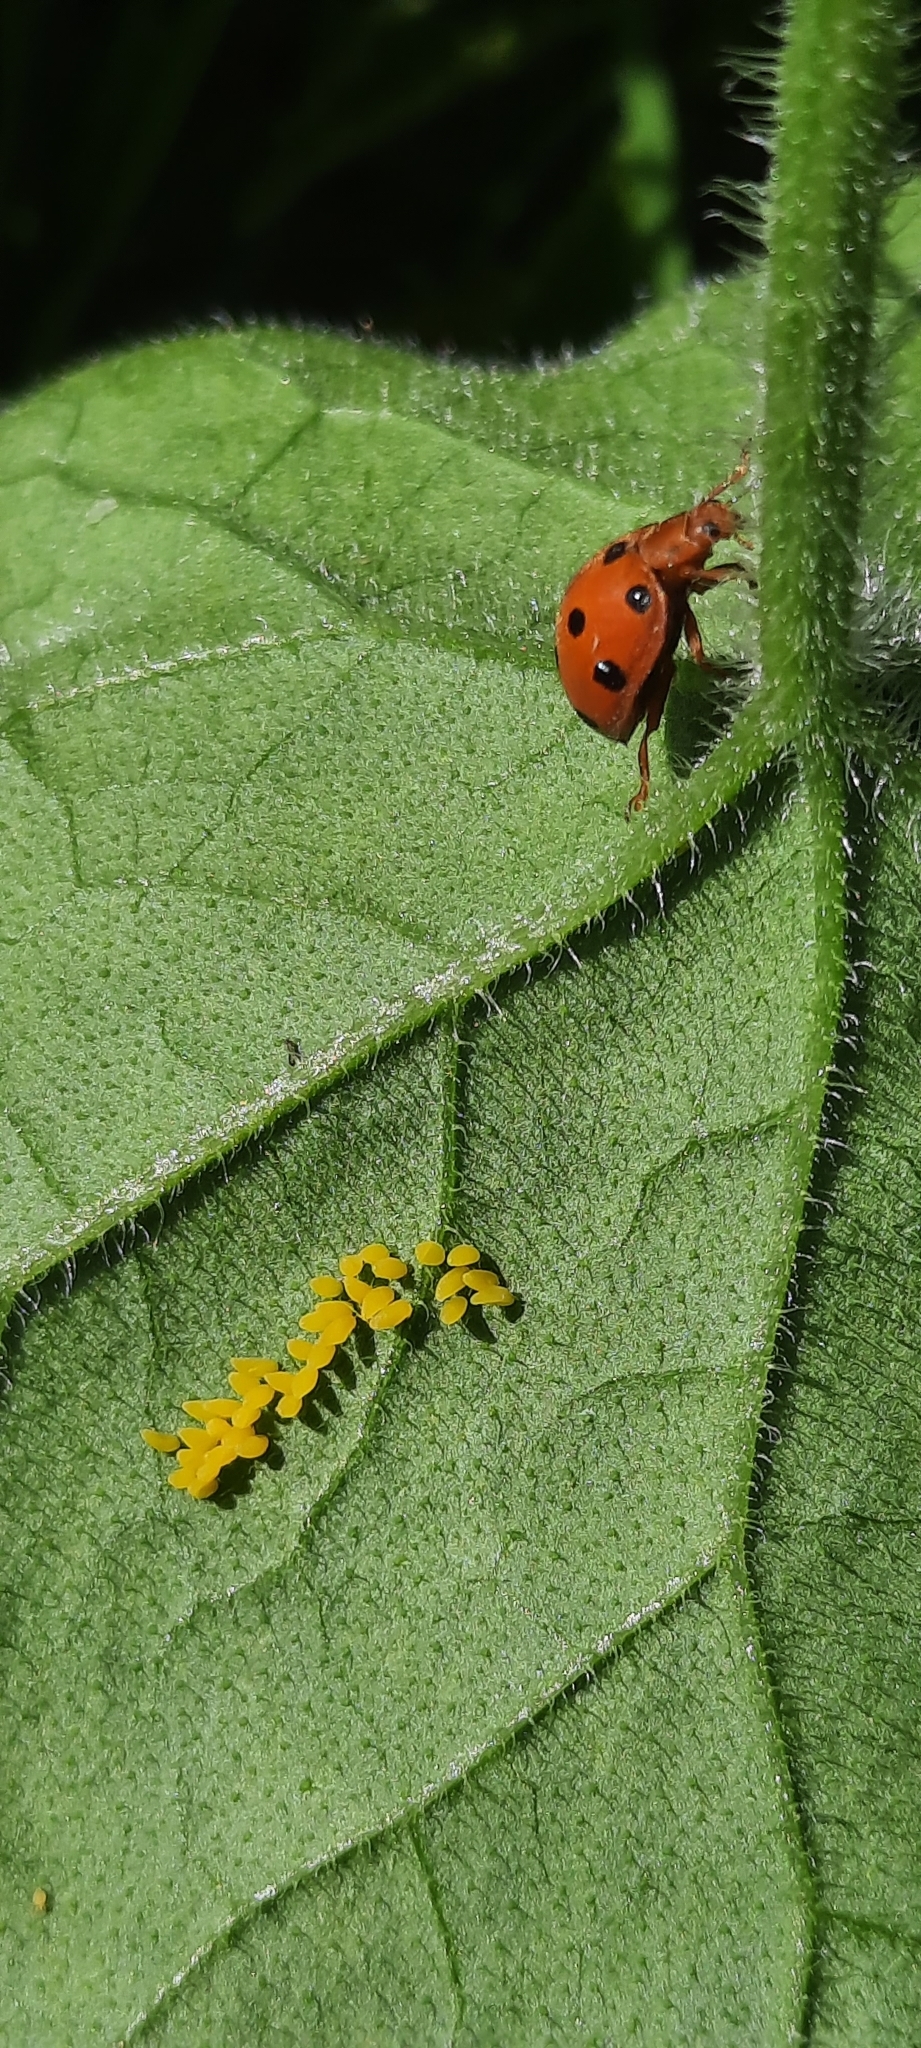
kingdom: Animalia
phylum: Arthropoda
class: Insecta
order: Coleoptera
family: Coccinellidae
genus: Henosepilachna
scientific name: Henosepilachna argus
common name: Bryony ladybird
